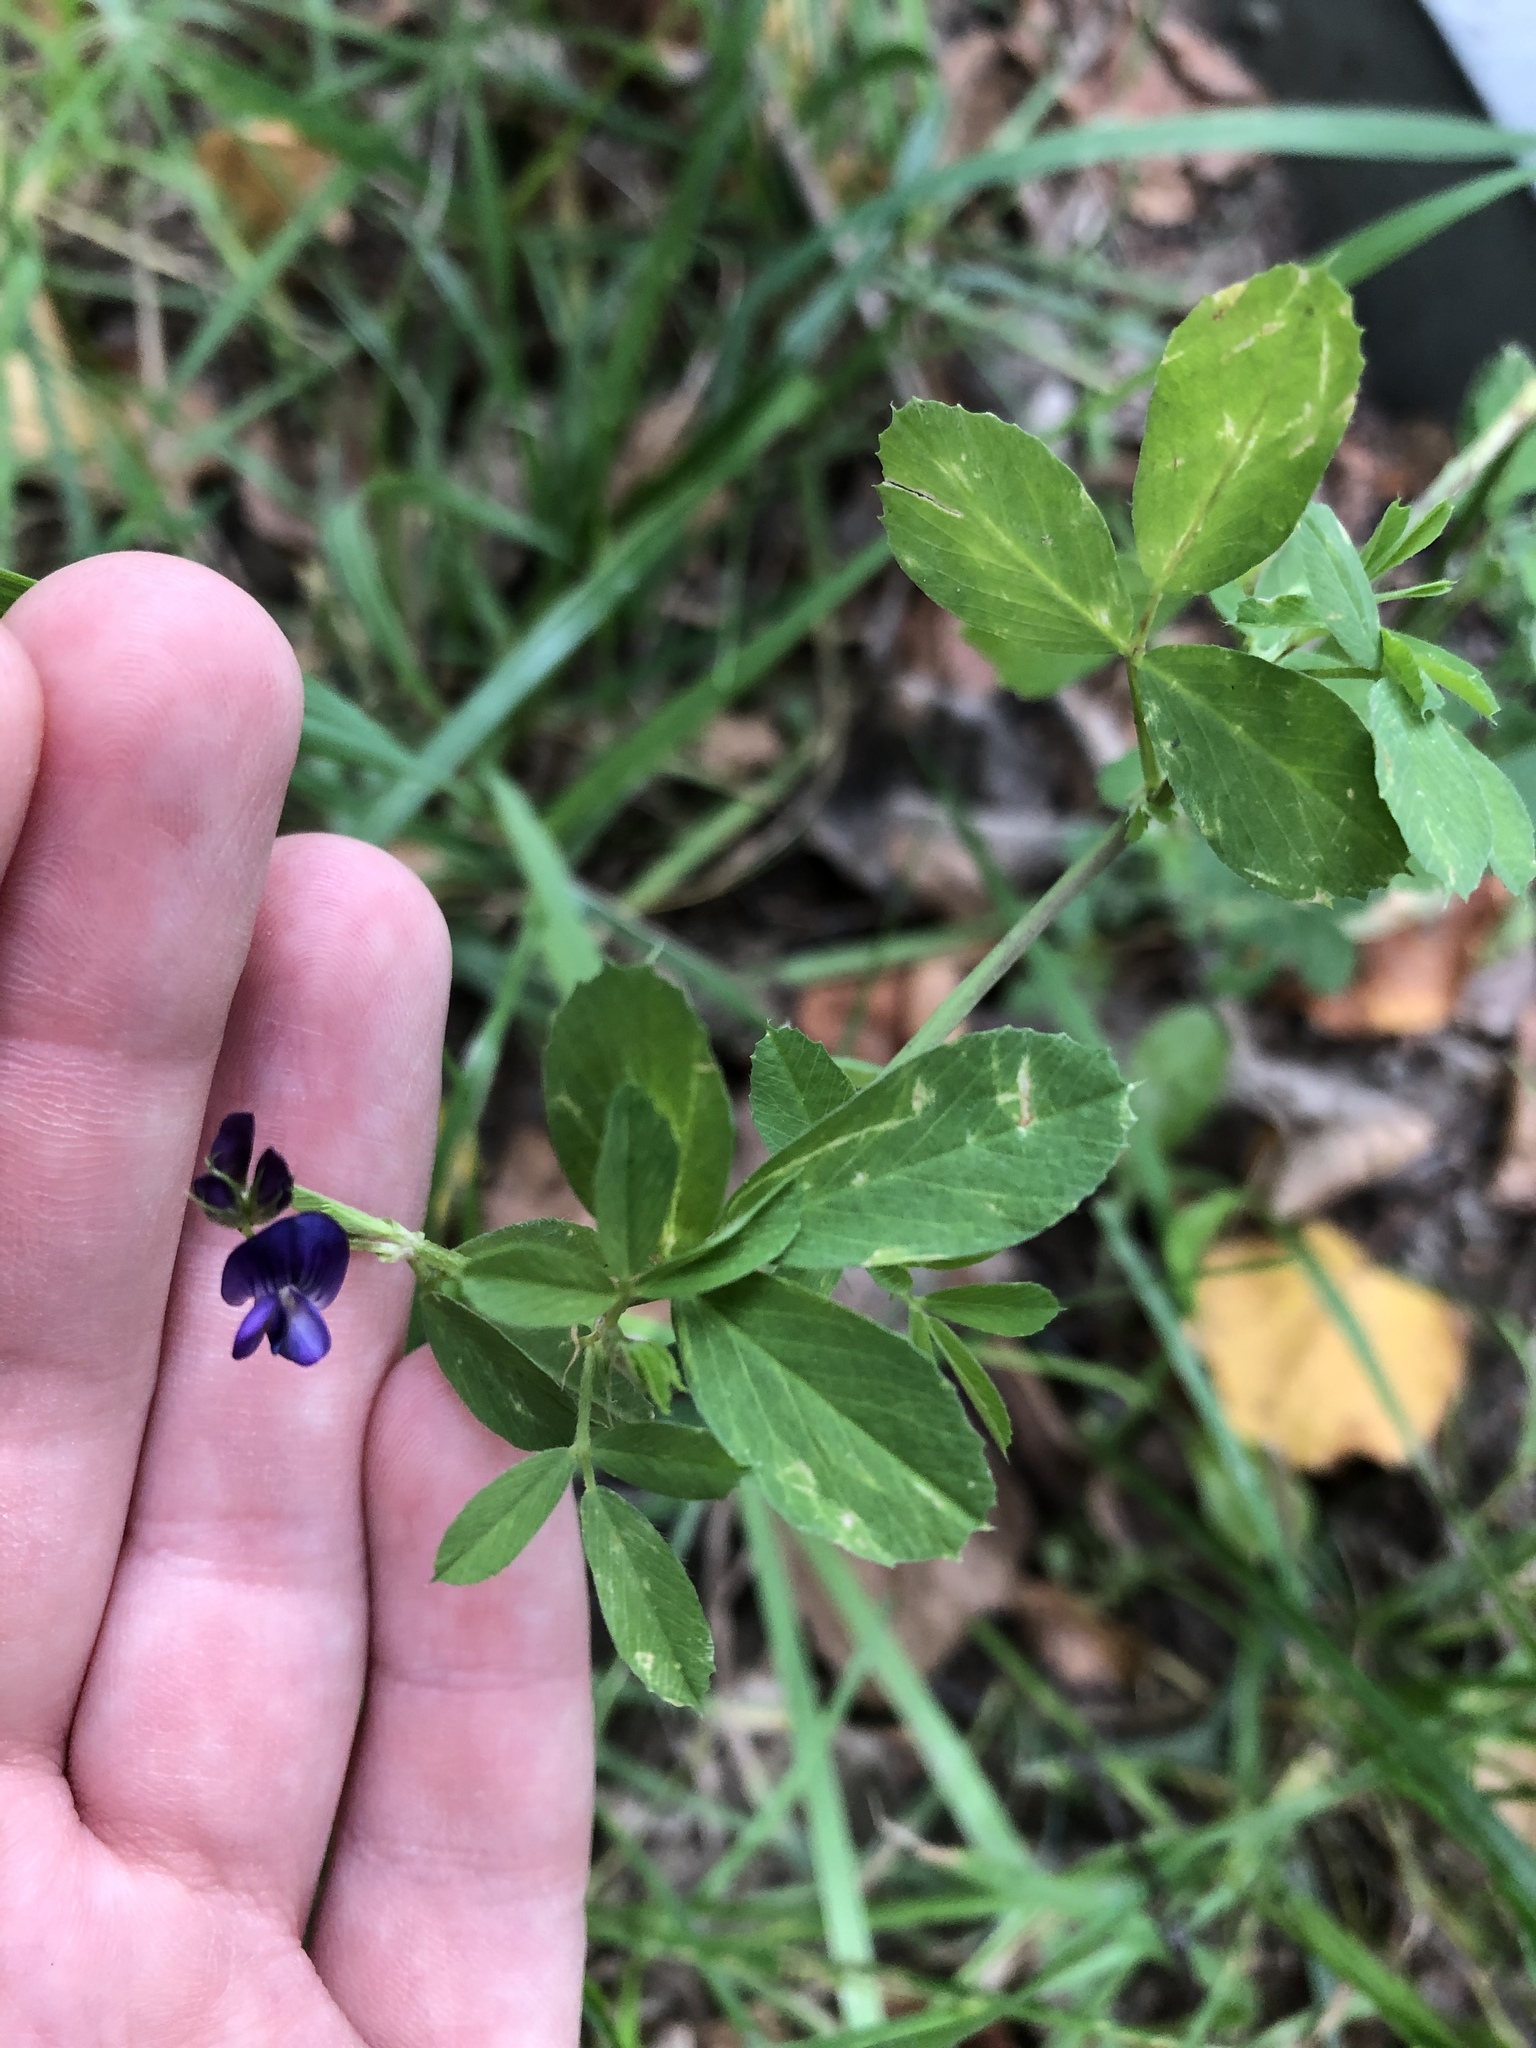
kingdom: Plantae
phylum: Tracheophyta
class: Magnoliopsida
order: Fabales
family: Fabaceae
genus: Medicago
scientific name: Medicago varia
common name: Sand lucerne
